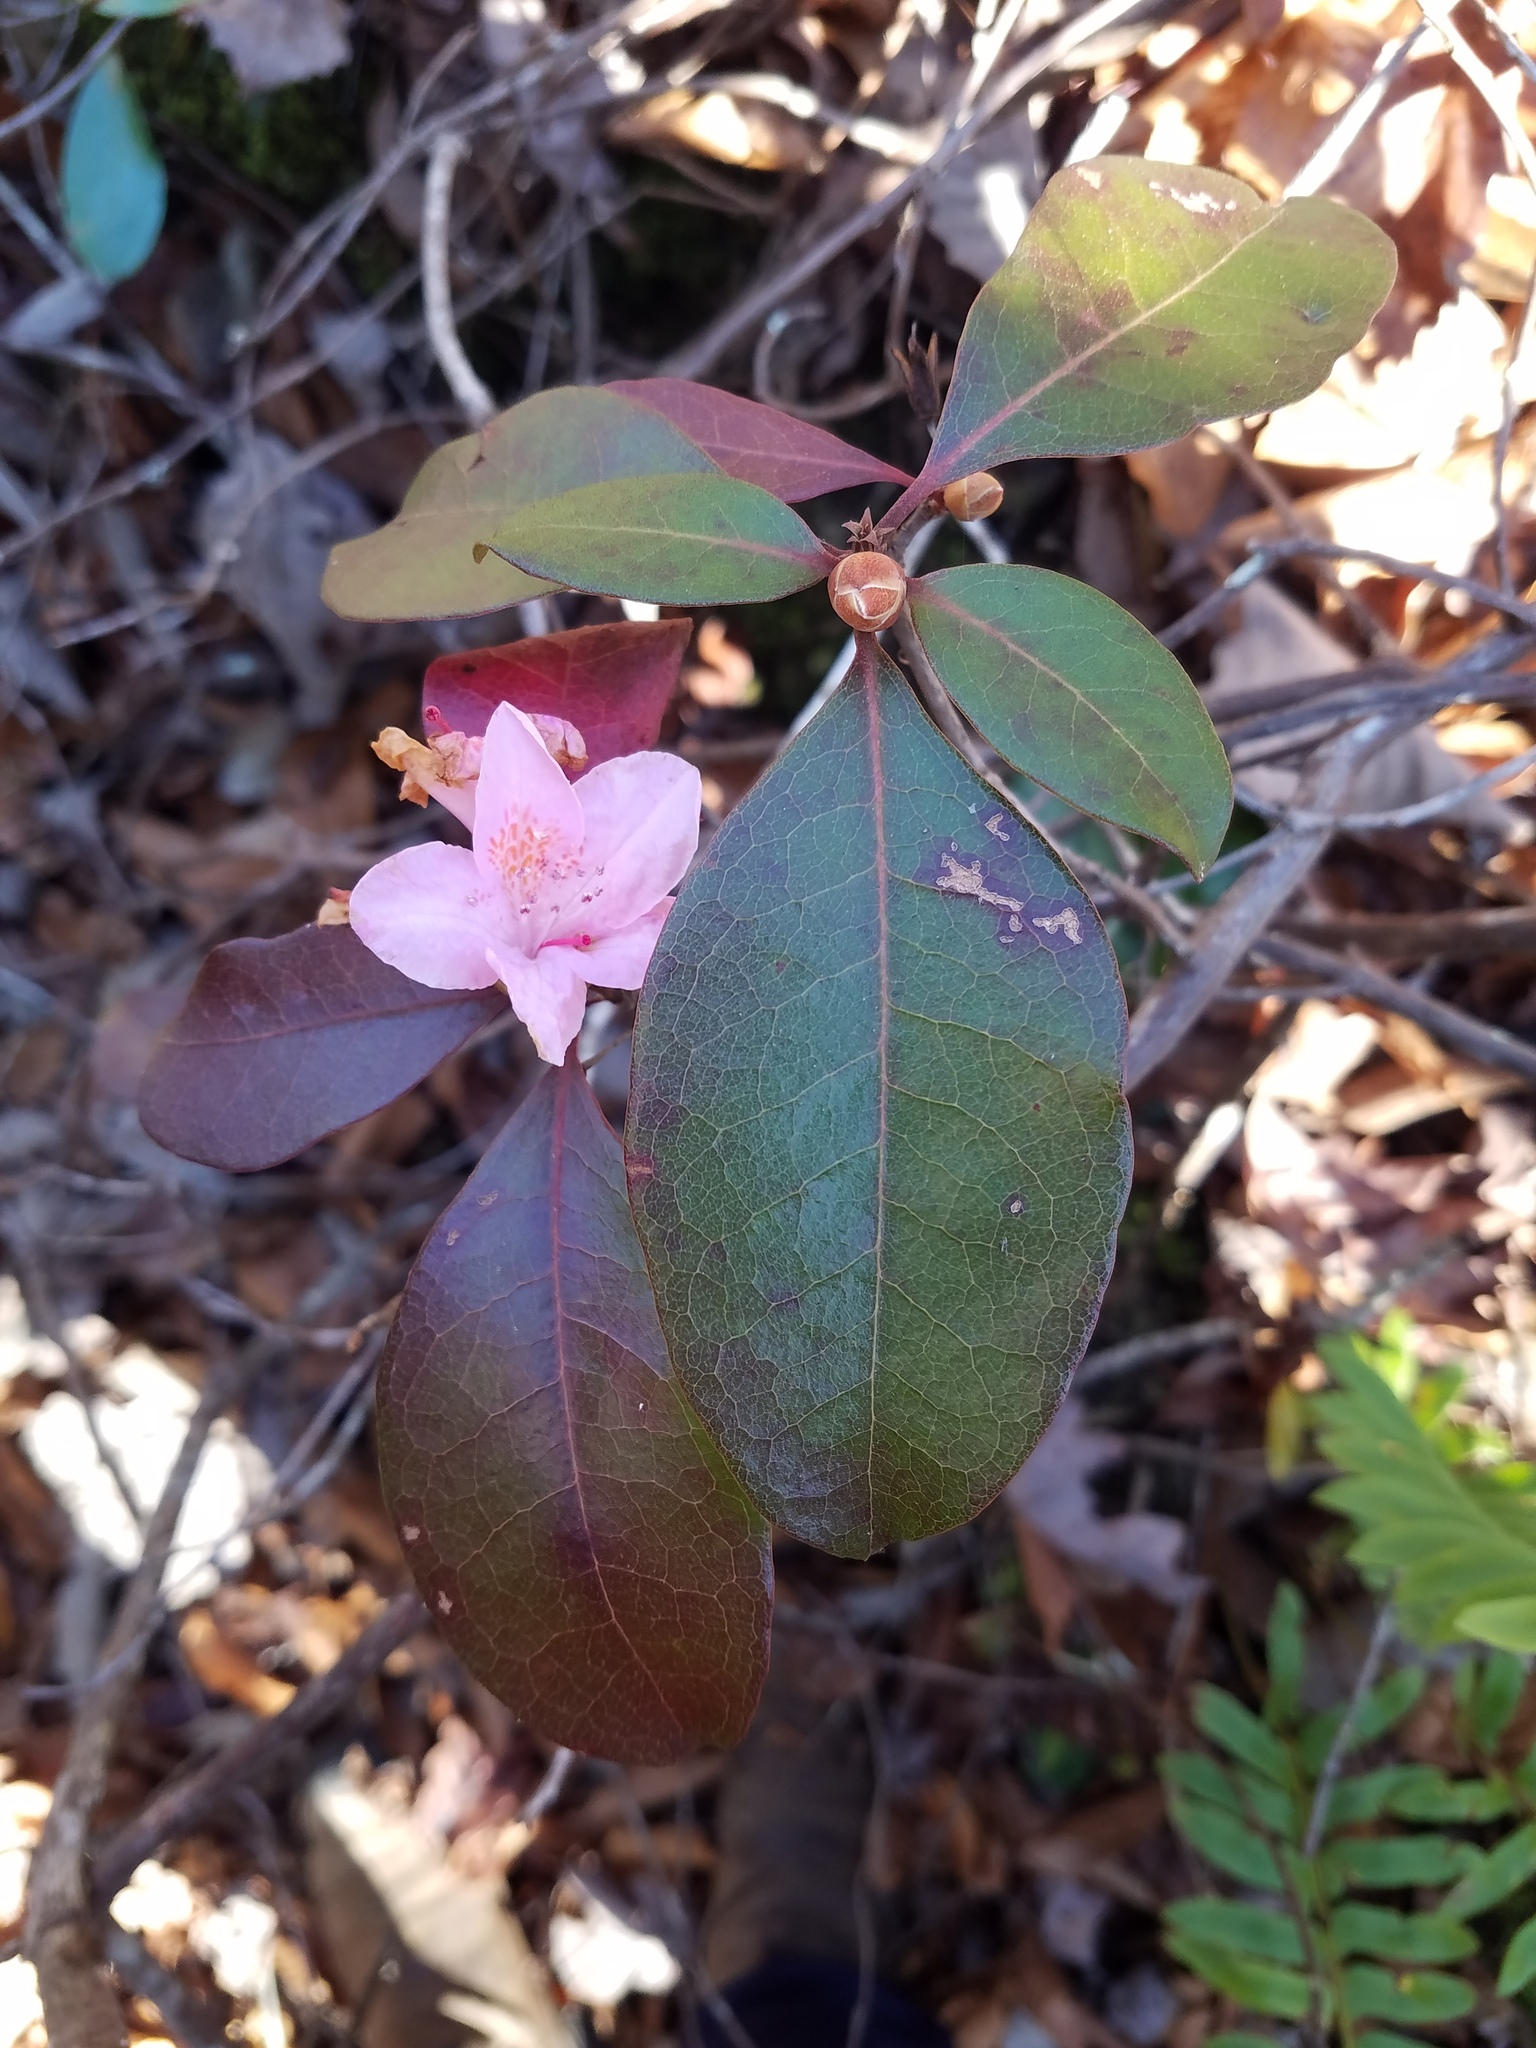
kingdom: Plantae
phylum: Tracheophyta
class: Magnoliopsida
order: Ericales
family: Ericaceae
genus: Rhododendron
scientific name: Rhododendron minus
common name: Piedmont rhododendron
